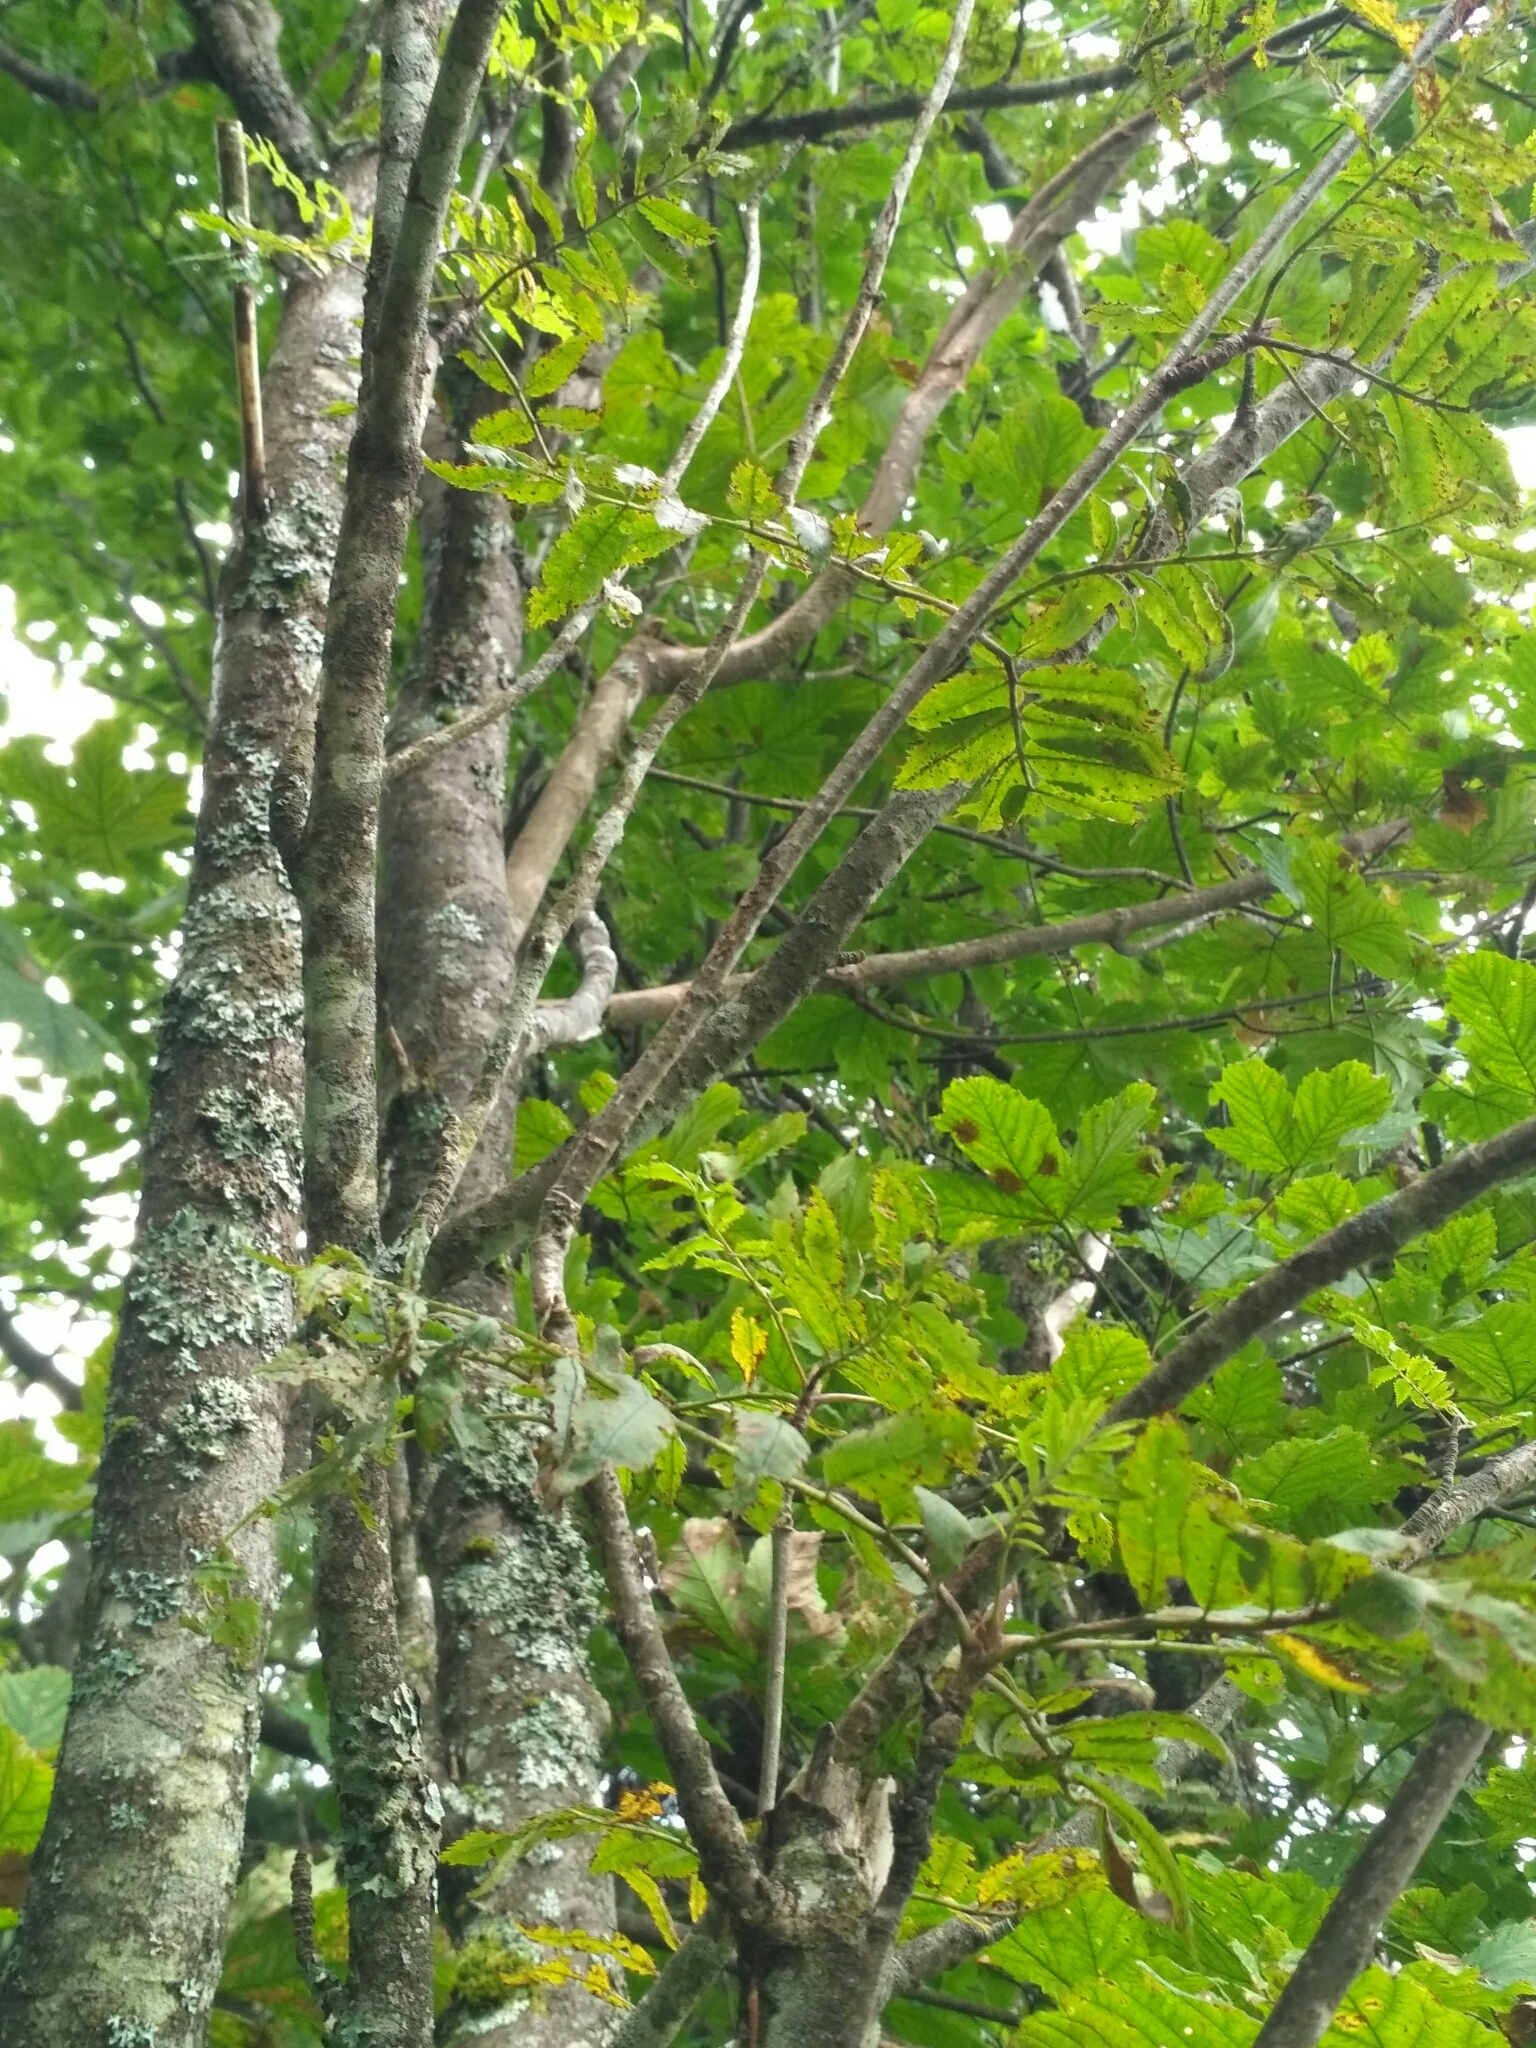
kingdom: Plantae
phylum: Tracheophyta
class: Magnoliopsida
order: Rosales
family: Rosaceae
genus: Sorbus
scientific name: Sorbus aucuparia
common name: Rowan
